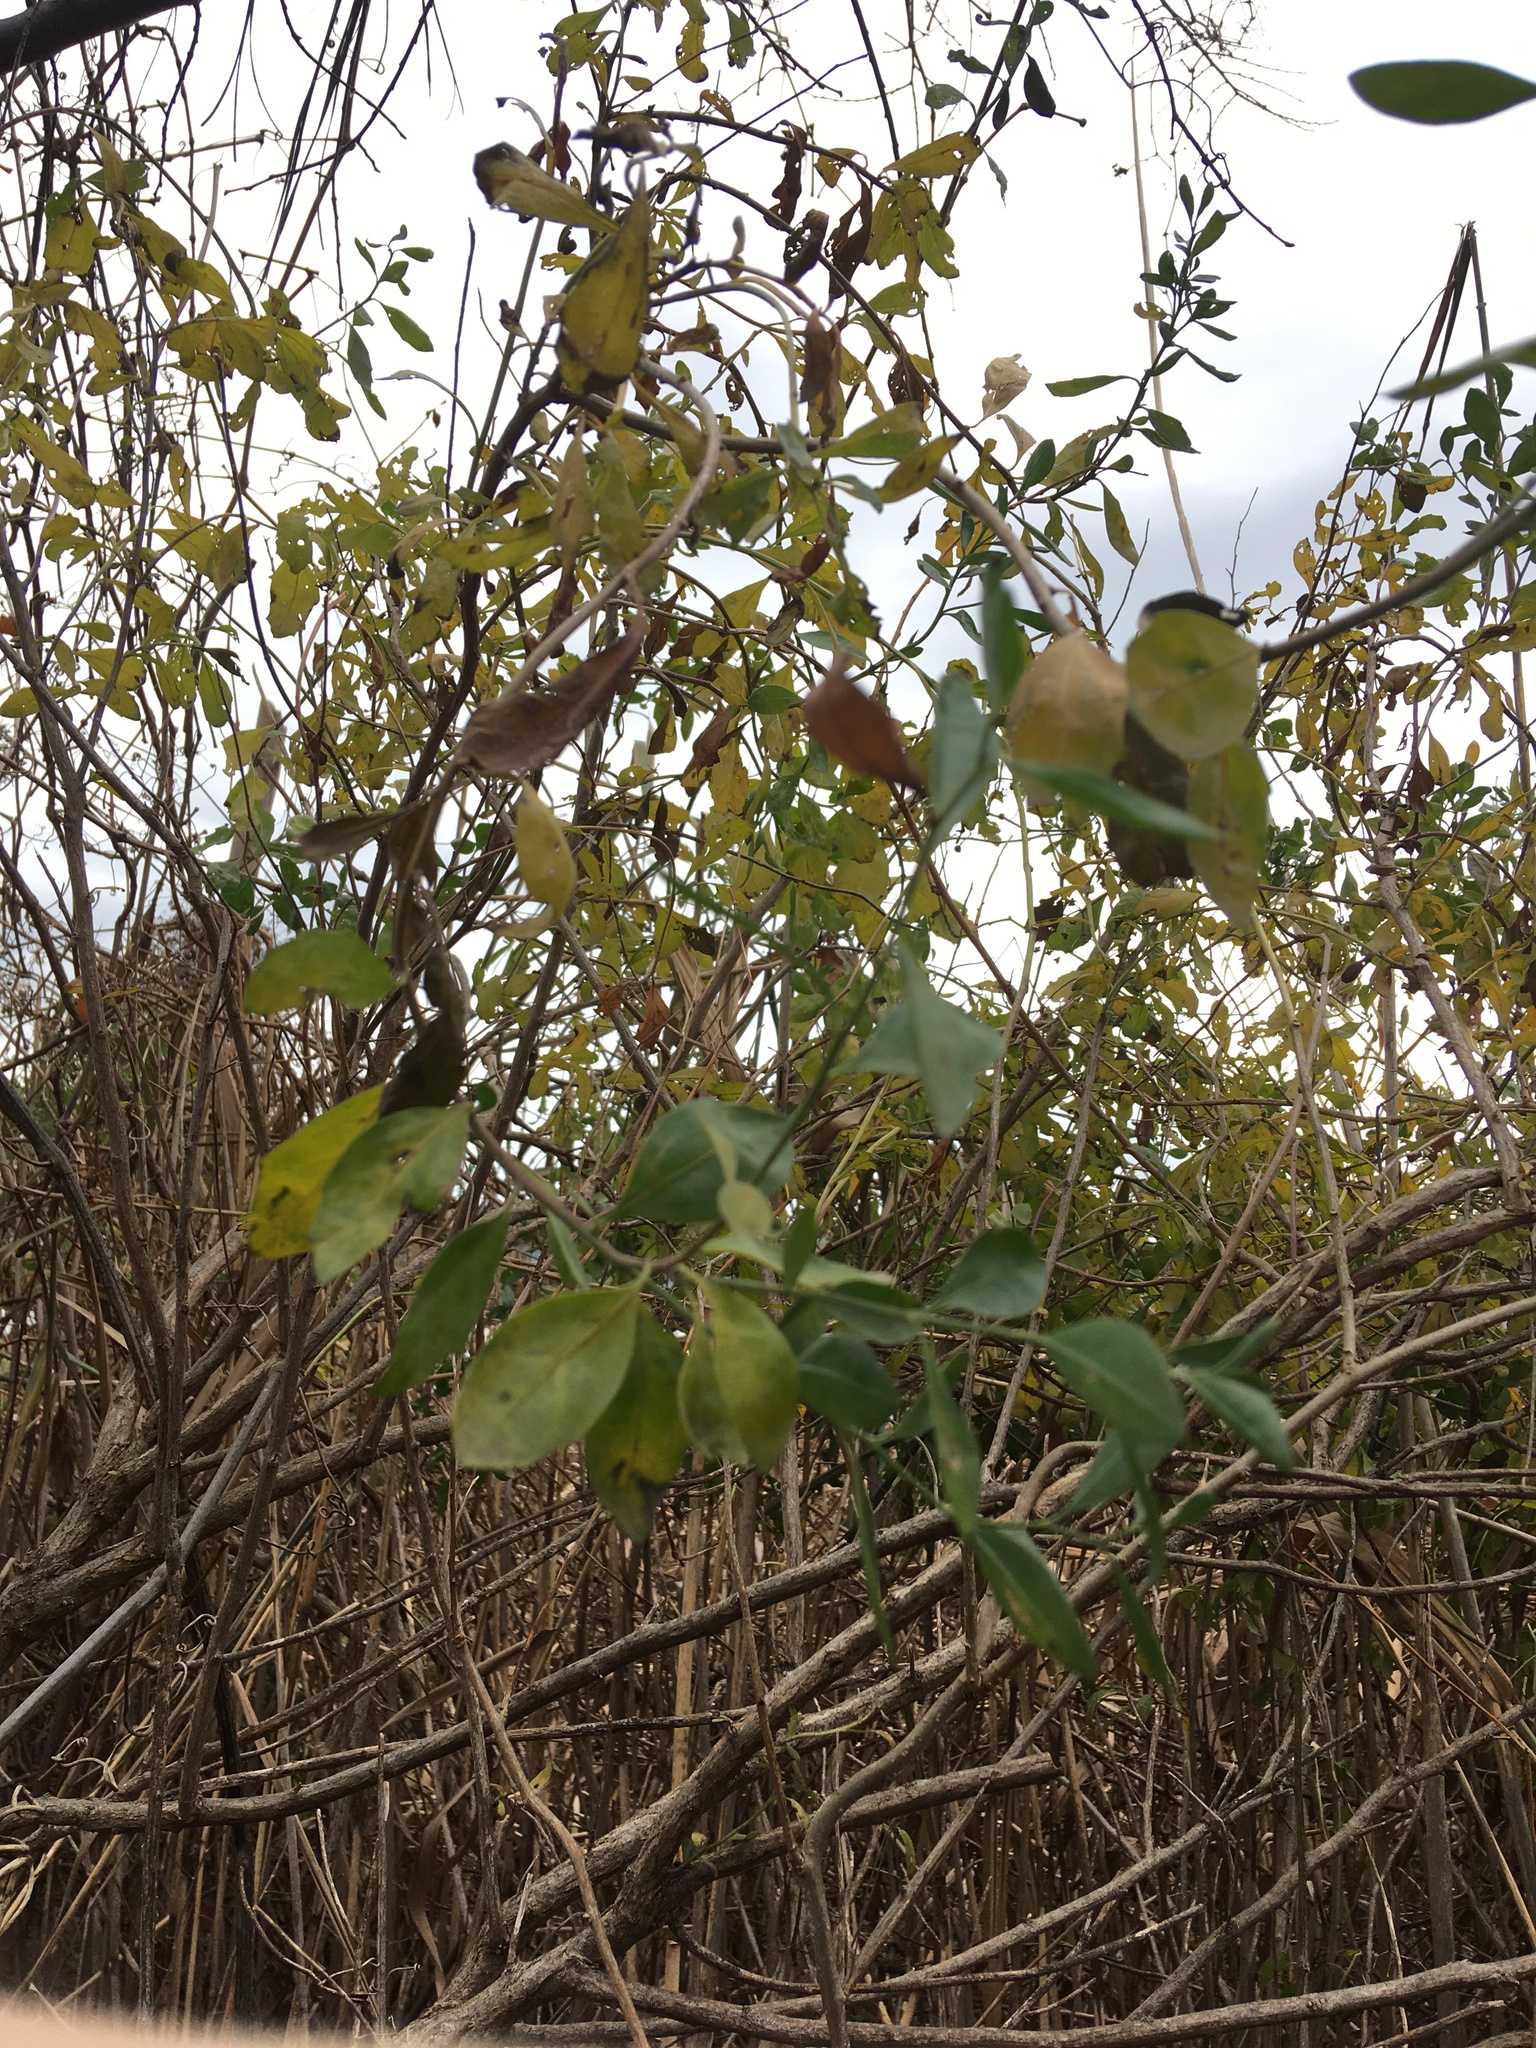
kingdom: Plantae
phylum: Tracheophyta
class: Magnoliopsida
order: Asterales
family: Asteraceae
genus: Baccharis
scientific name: Baccharis halimifolia
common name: Eastern baccharis
